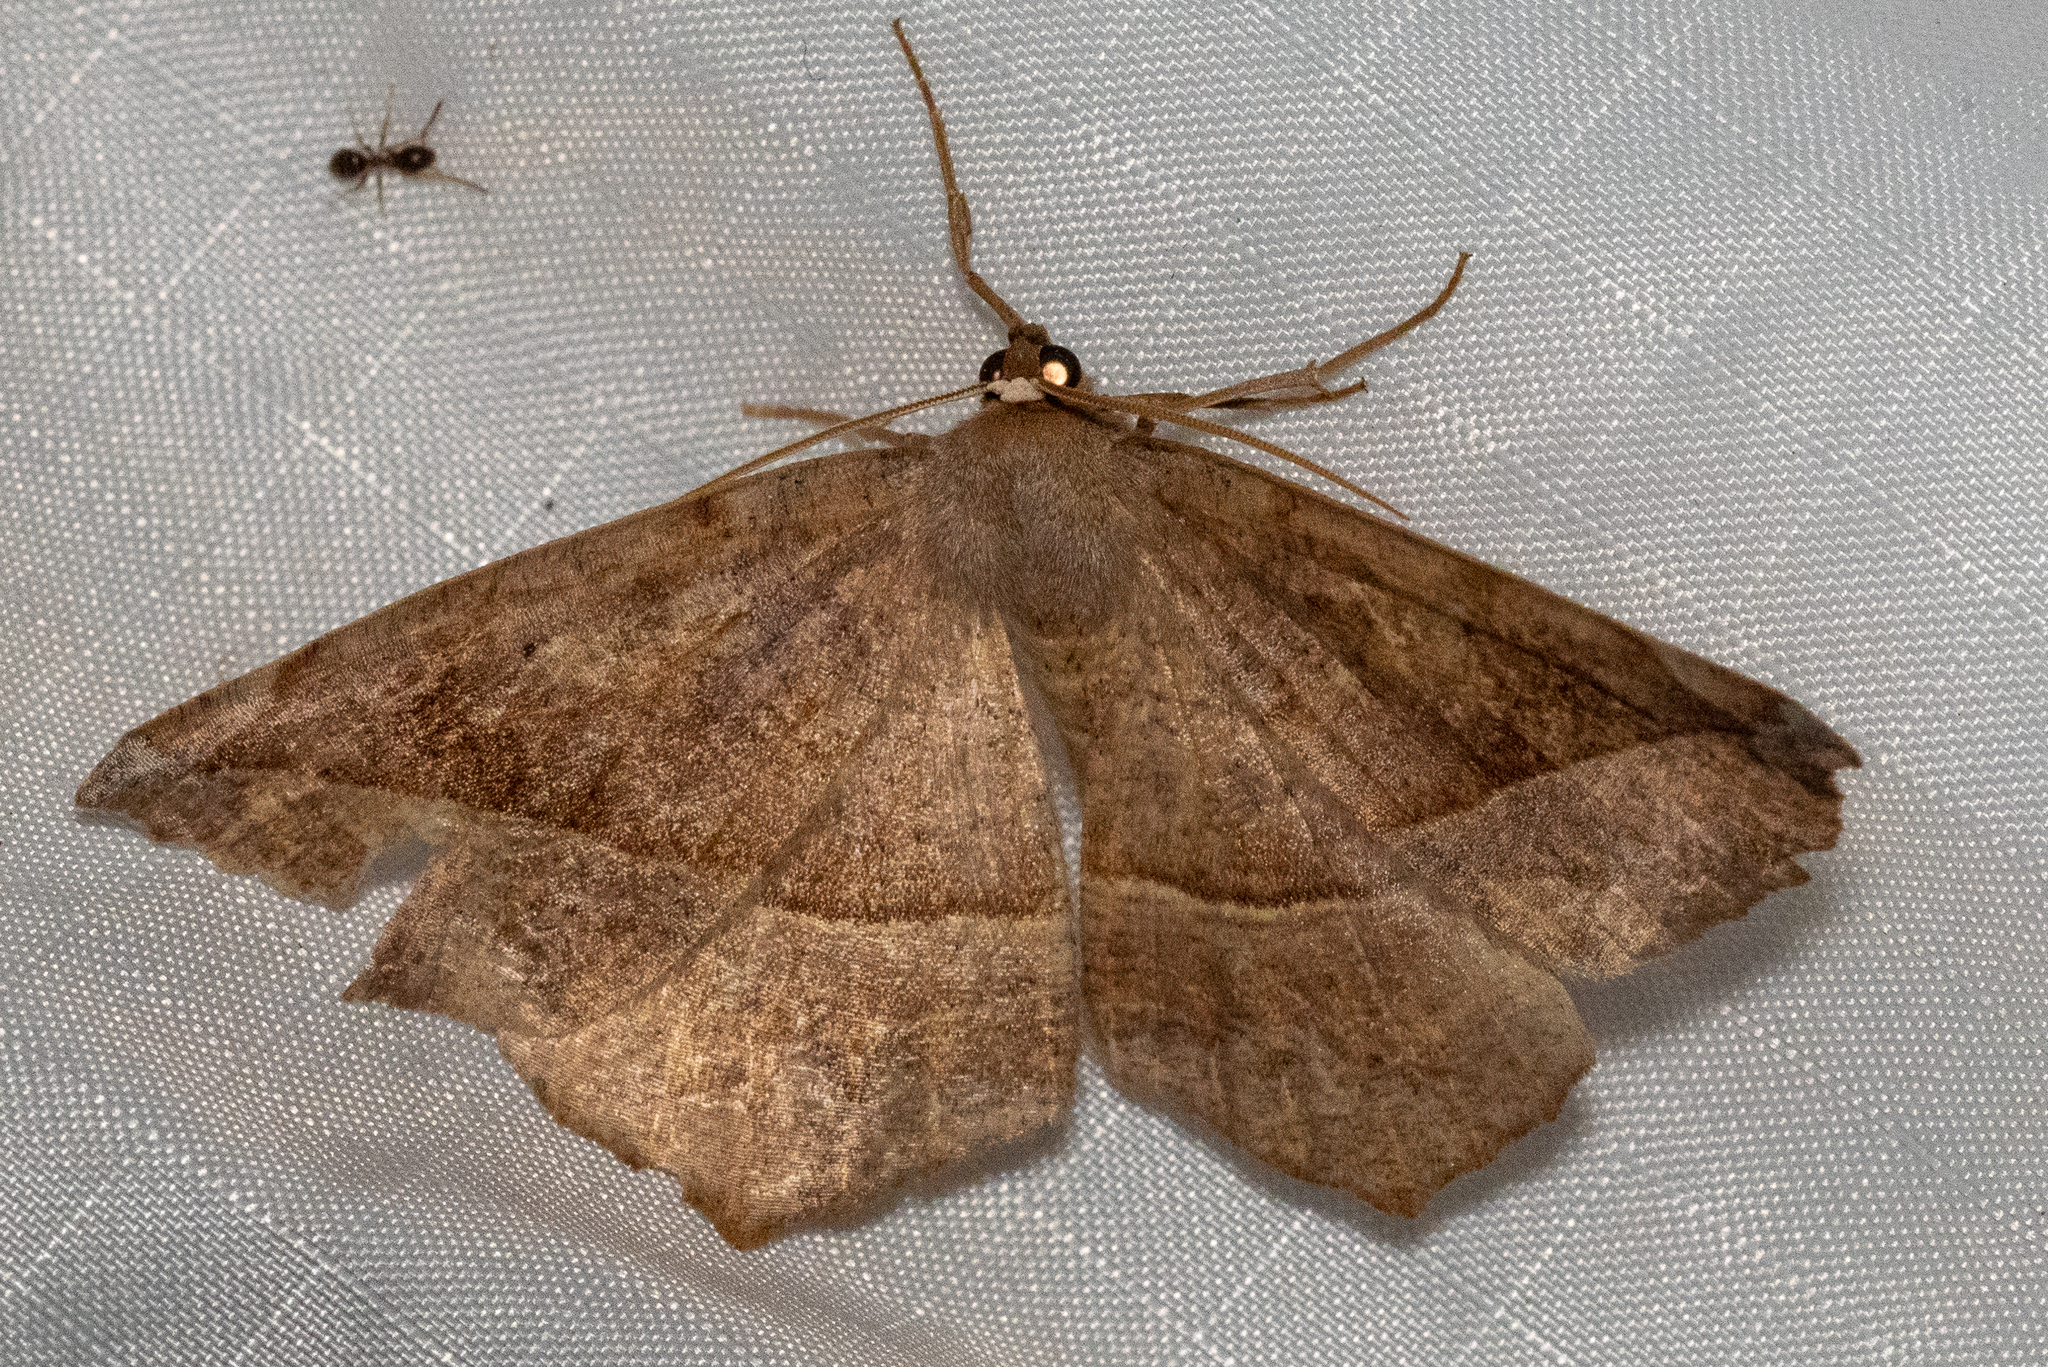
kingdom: Animalia
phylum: Arthropoda
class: Insecta
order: Lepidoptera
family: Geometridae
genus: Eutrapela
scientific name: Eutrapela clemataria
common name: Curved-toothed geometer
